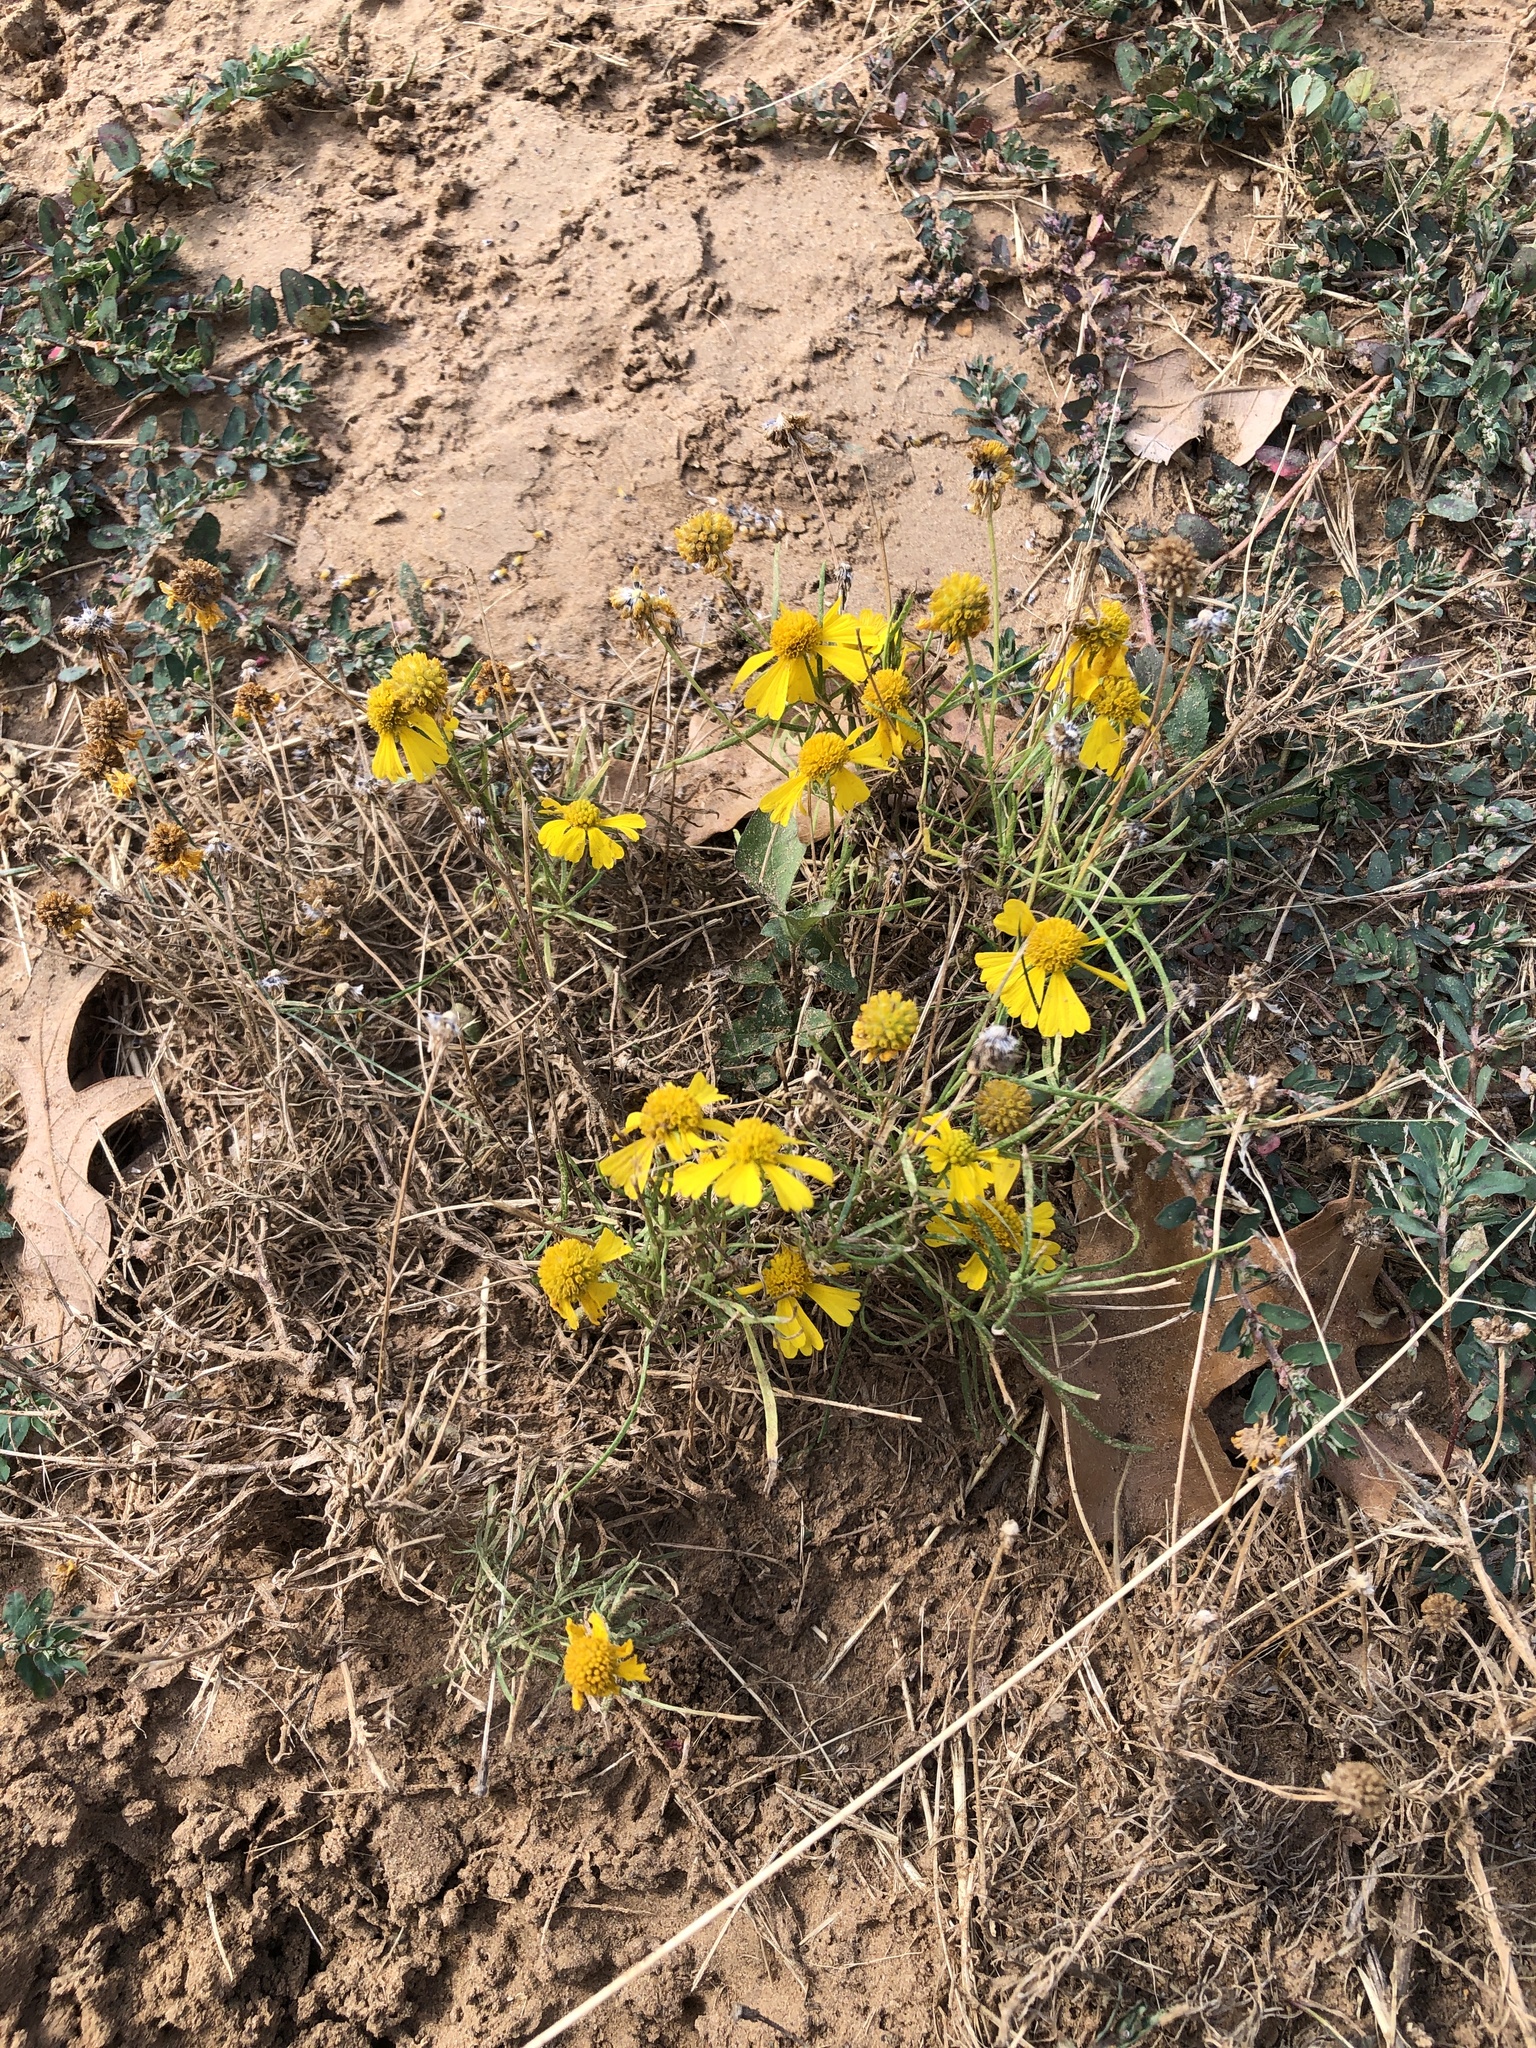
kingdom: Plantae
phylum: Tracheophyta
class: Magnoliopsida
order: Asterales
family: Asteraceae
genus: Helenium
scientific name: Helenium amarum
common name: Bitter sneezeweed
